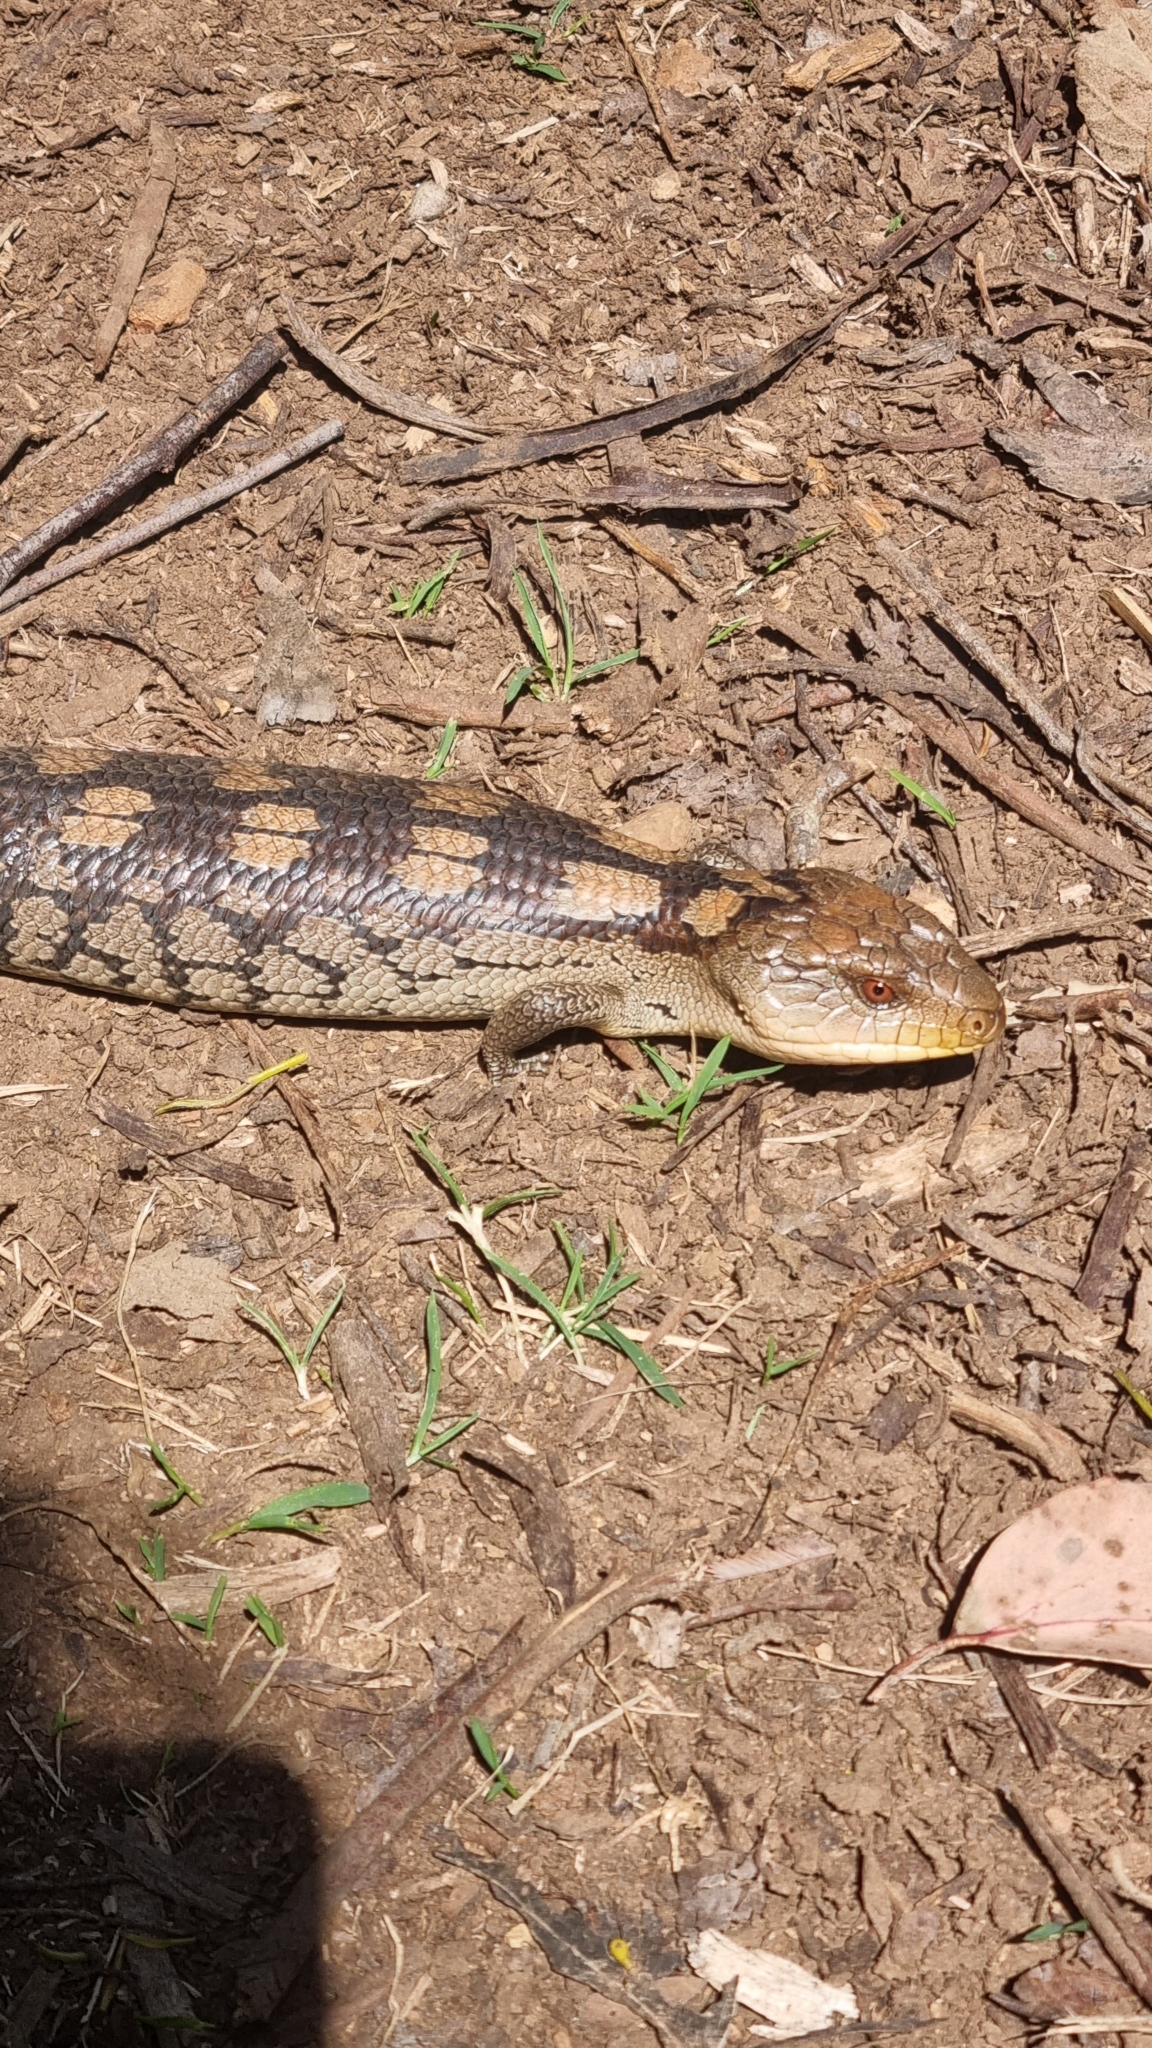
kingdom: Animalia
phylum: Chordata
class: Squamata
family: Scincidae
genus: Tiliqua
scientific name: Tiliqua nigrolutea
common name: Blotched blue-tongued lizard
